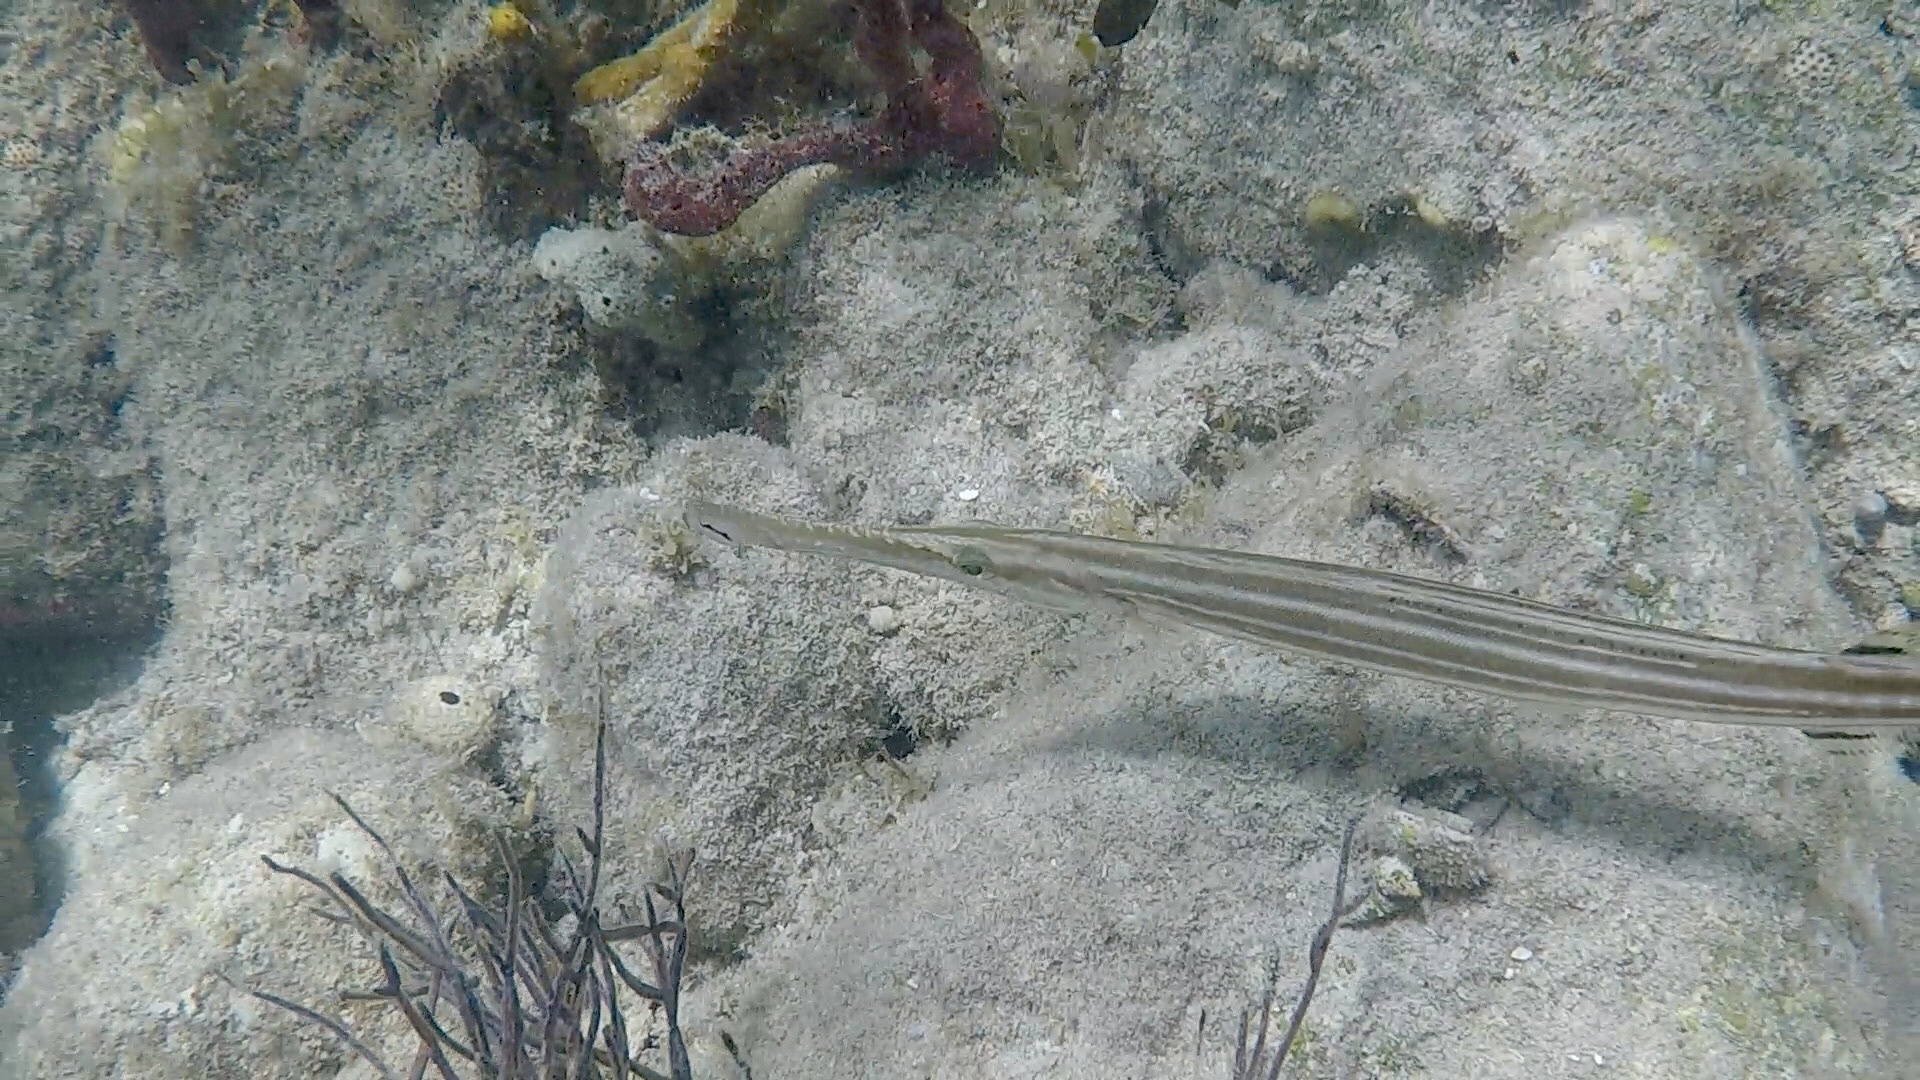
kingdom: Animalia
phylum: Chordata
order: Syngnathiformes
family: Aulostomidae
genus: Aulostomus
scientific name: Aulostomus maculatus
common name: West atlantic trumpetfish
